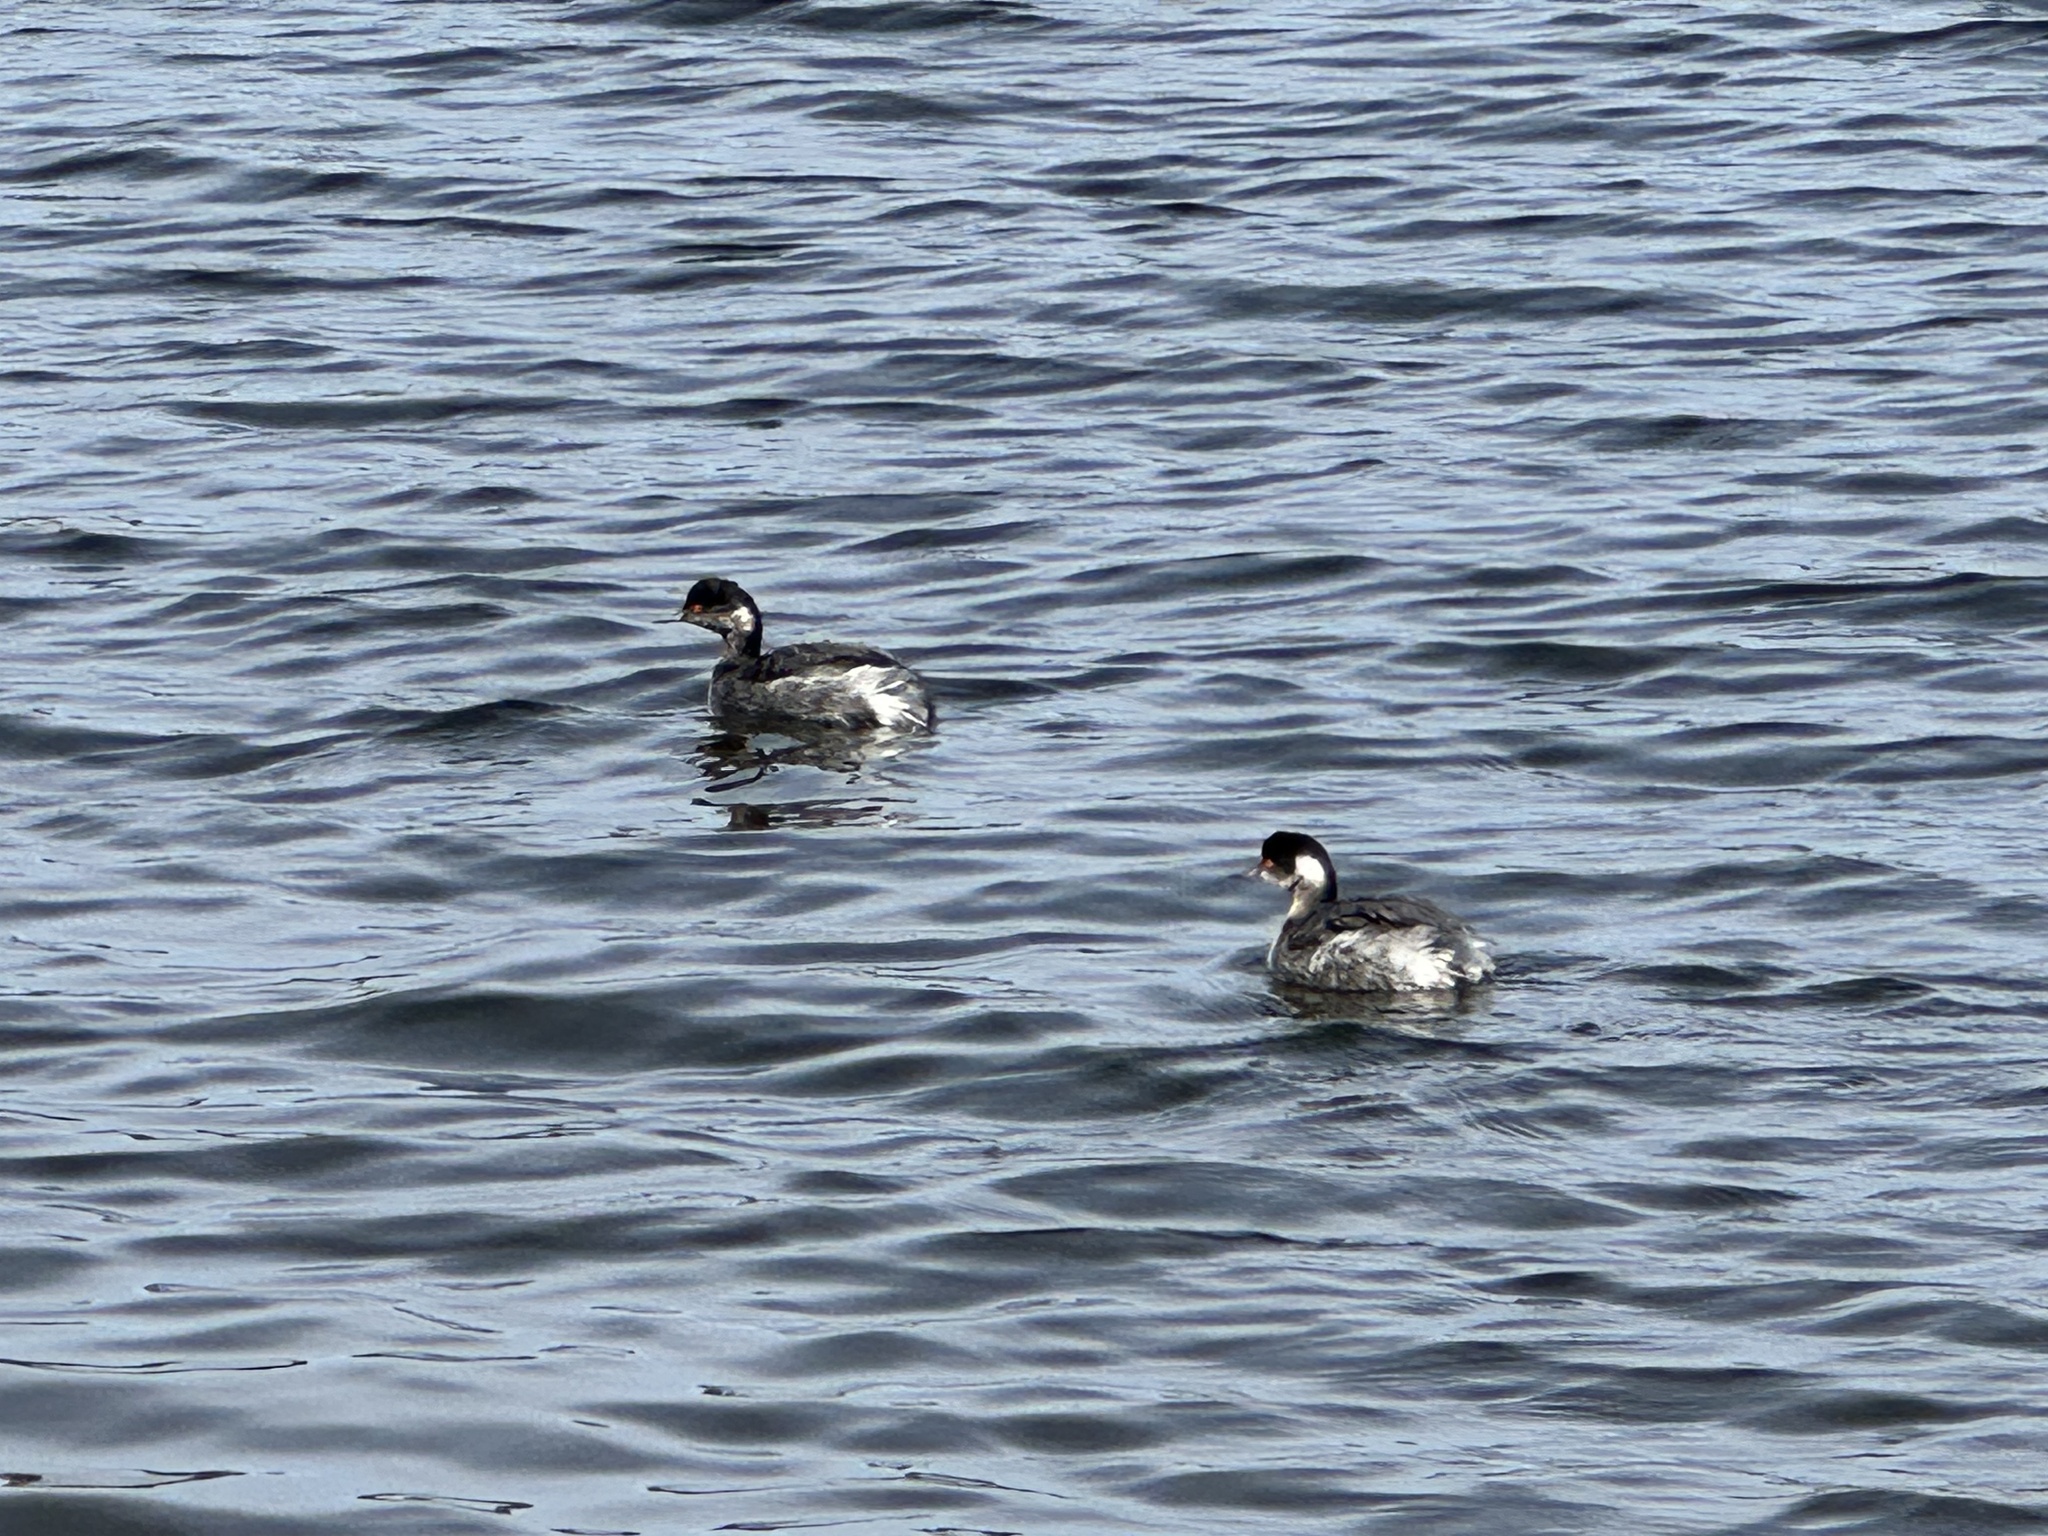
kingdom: Animalia
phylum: Chordata
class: Aves
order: Podicipediformes
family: Podicipedidae
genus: Podiceps
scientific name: Podiceps nigricollis
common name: Black-necked grebe
